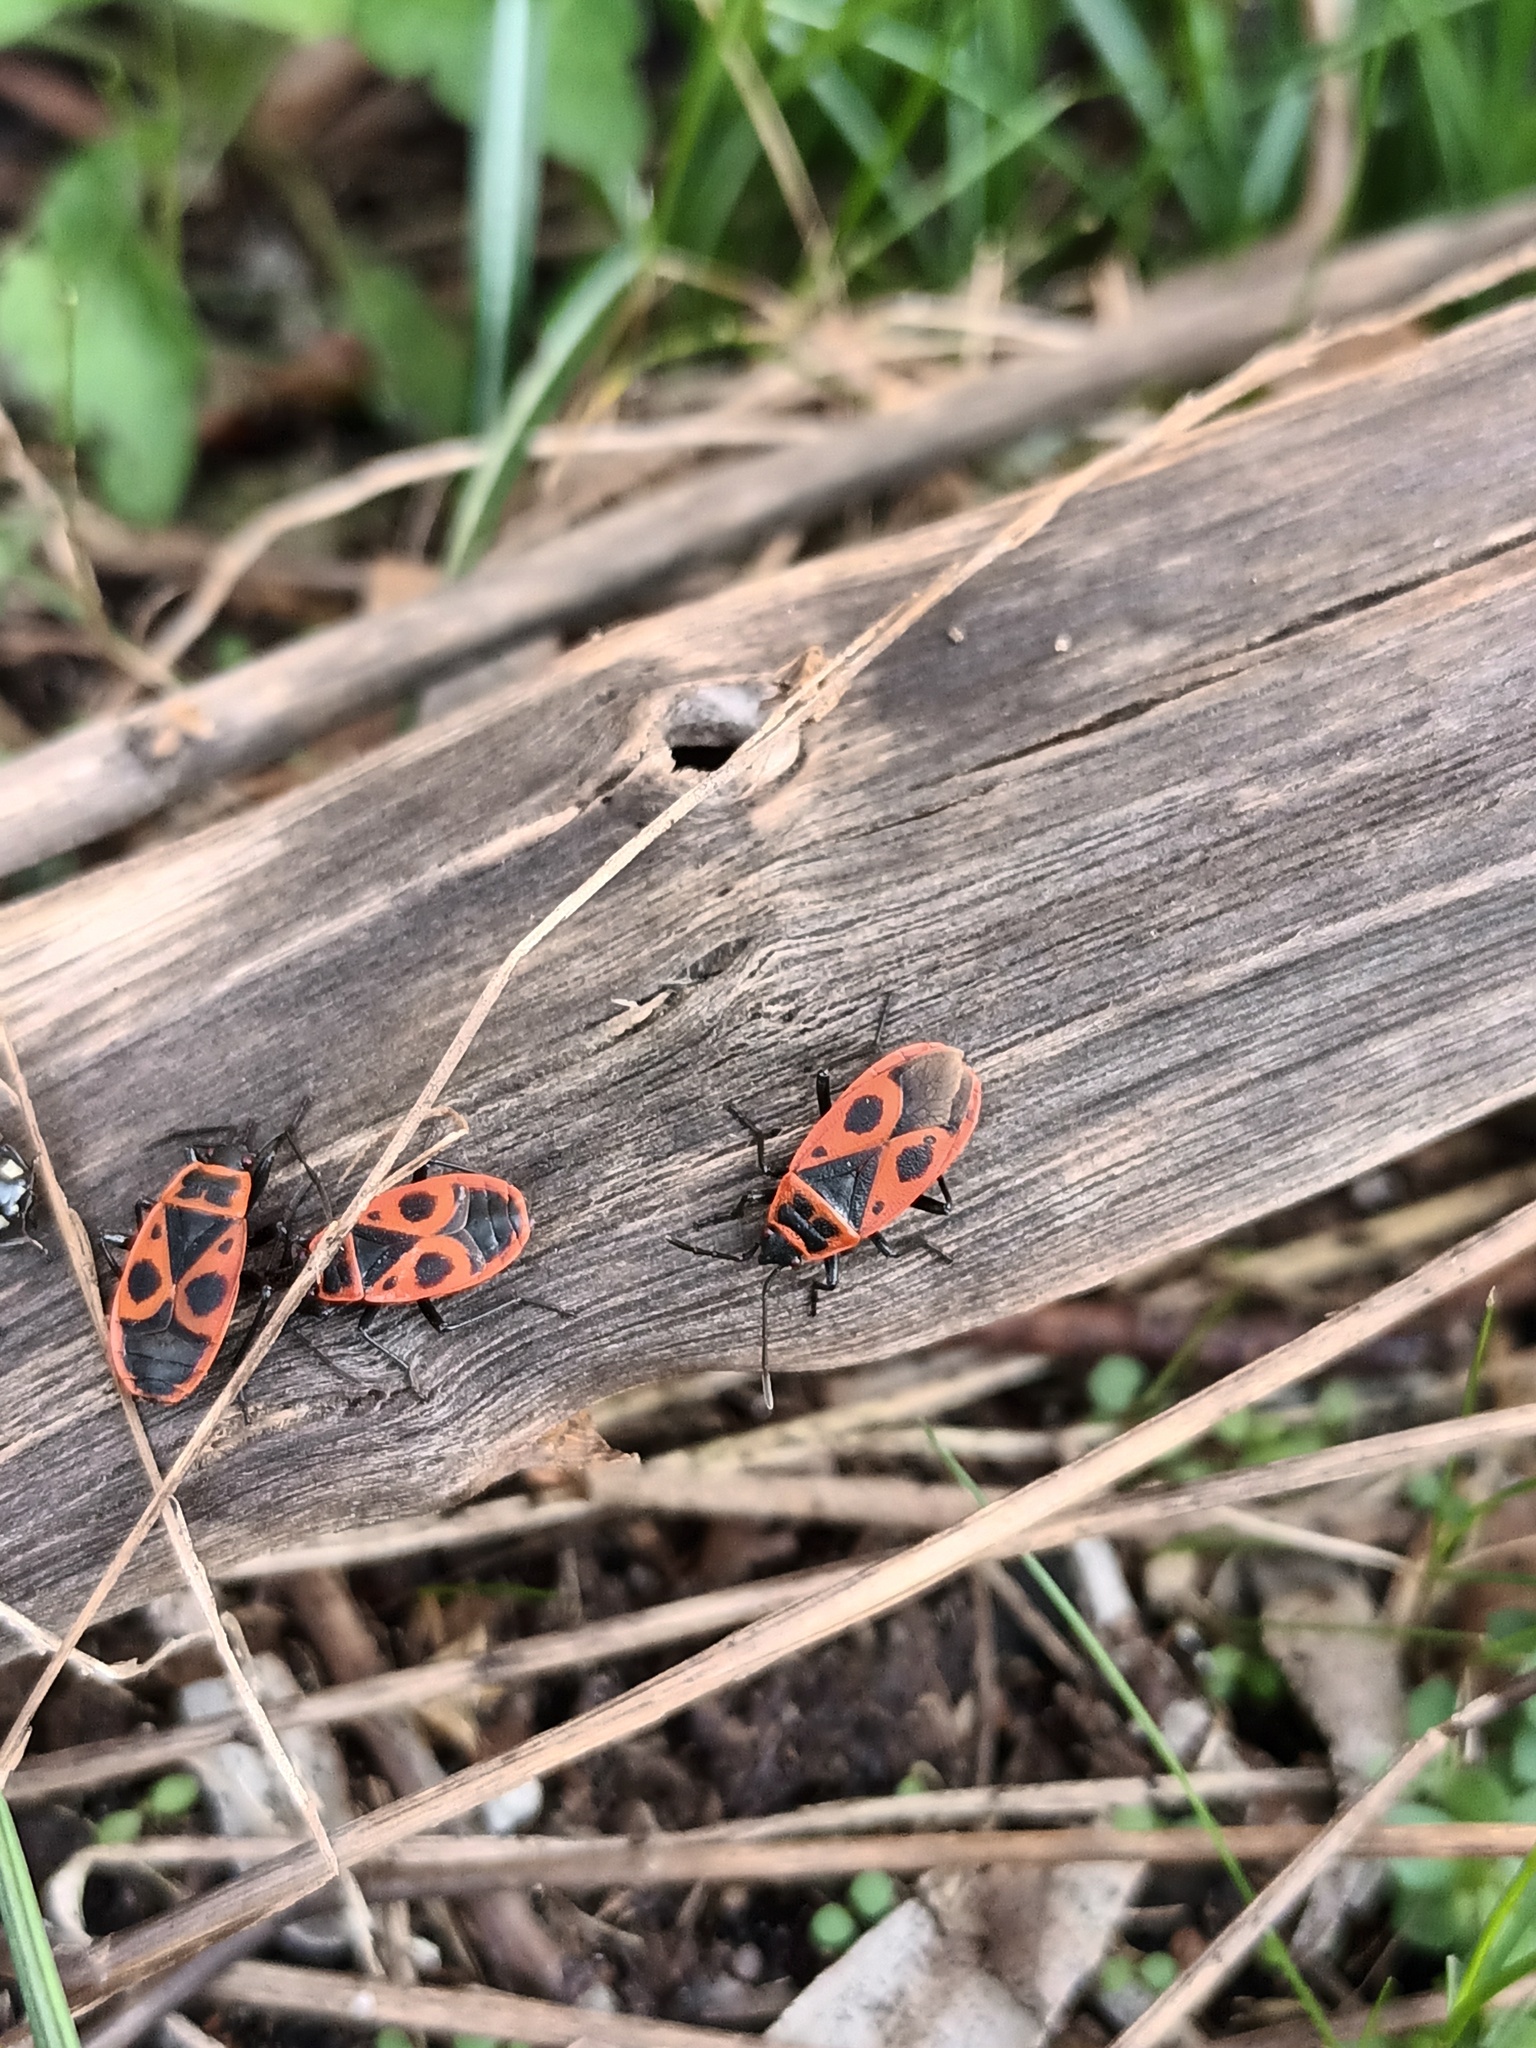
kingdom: Animalia
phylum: Arthropoda
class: Insecta
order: Hemiptera
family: Pyrrhocoridae
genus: Pyrrhocoris
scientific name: Pyrrhocoris apterus
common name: Firebug
